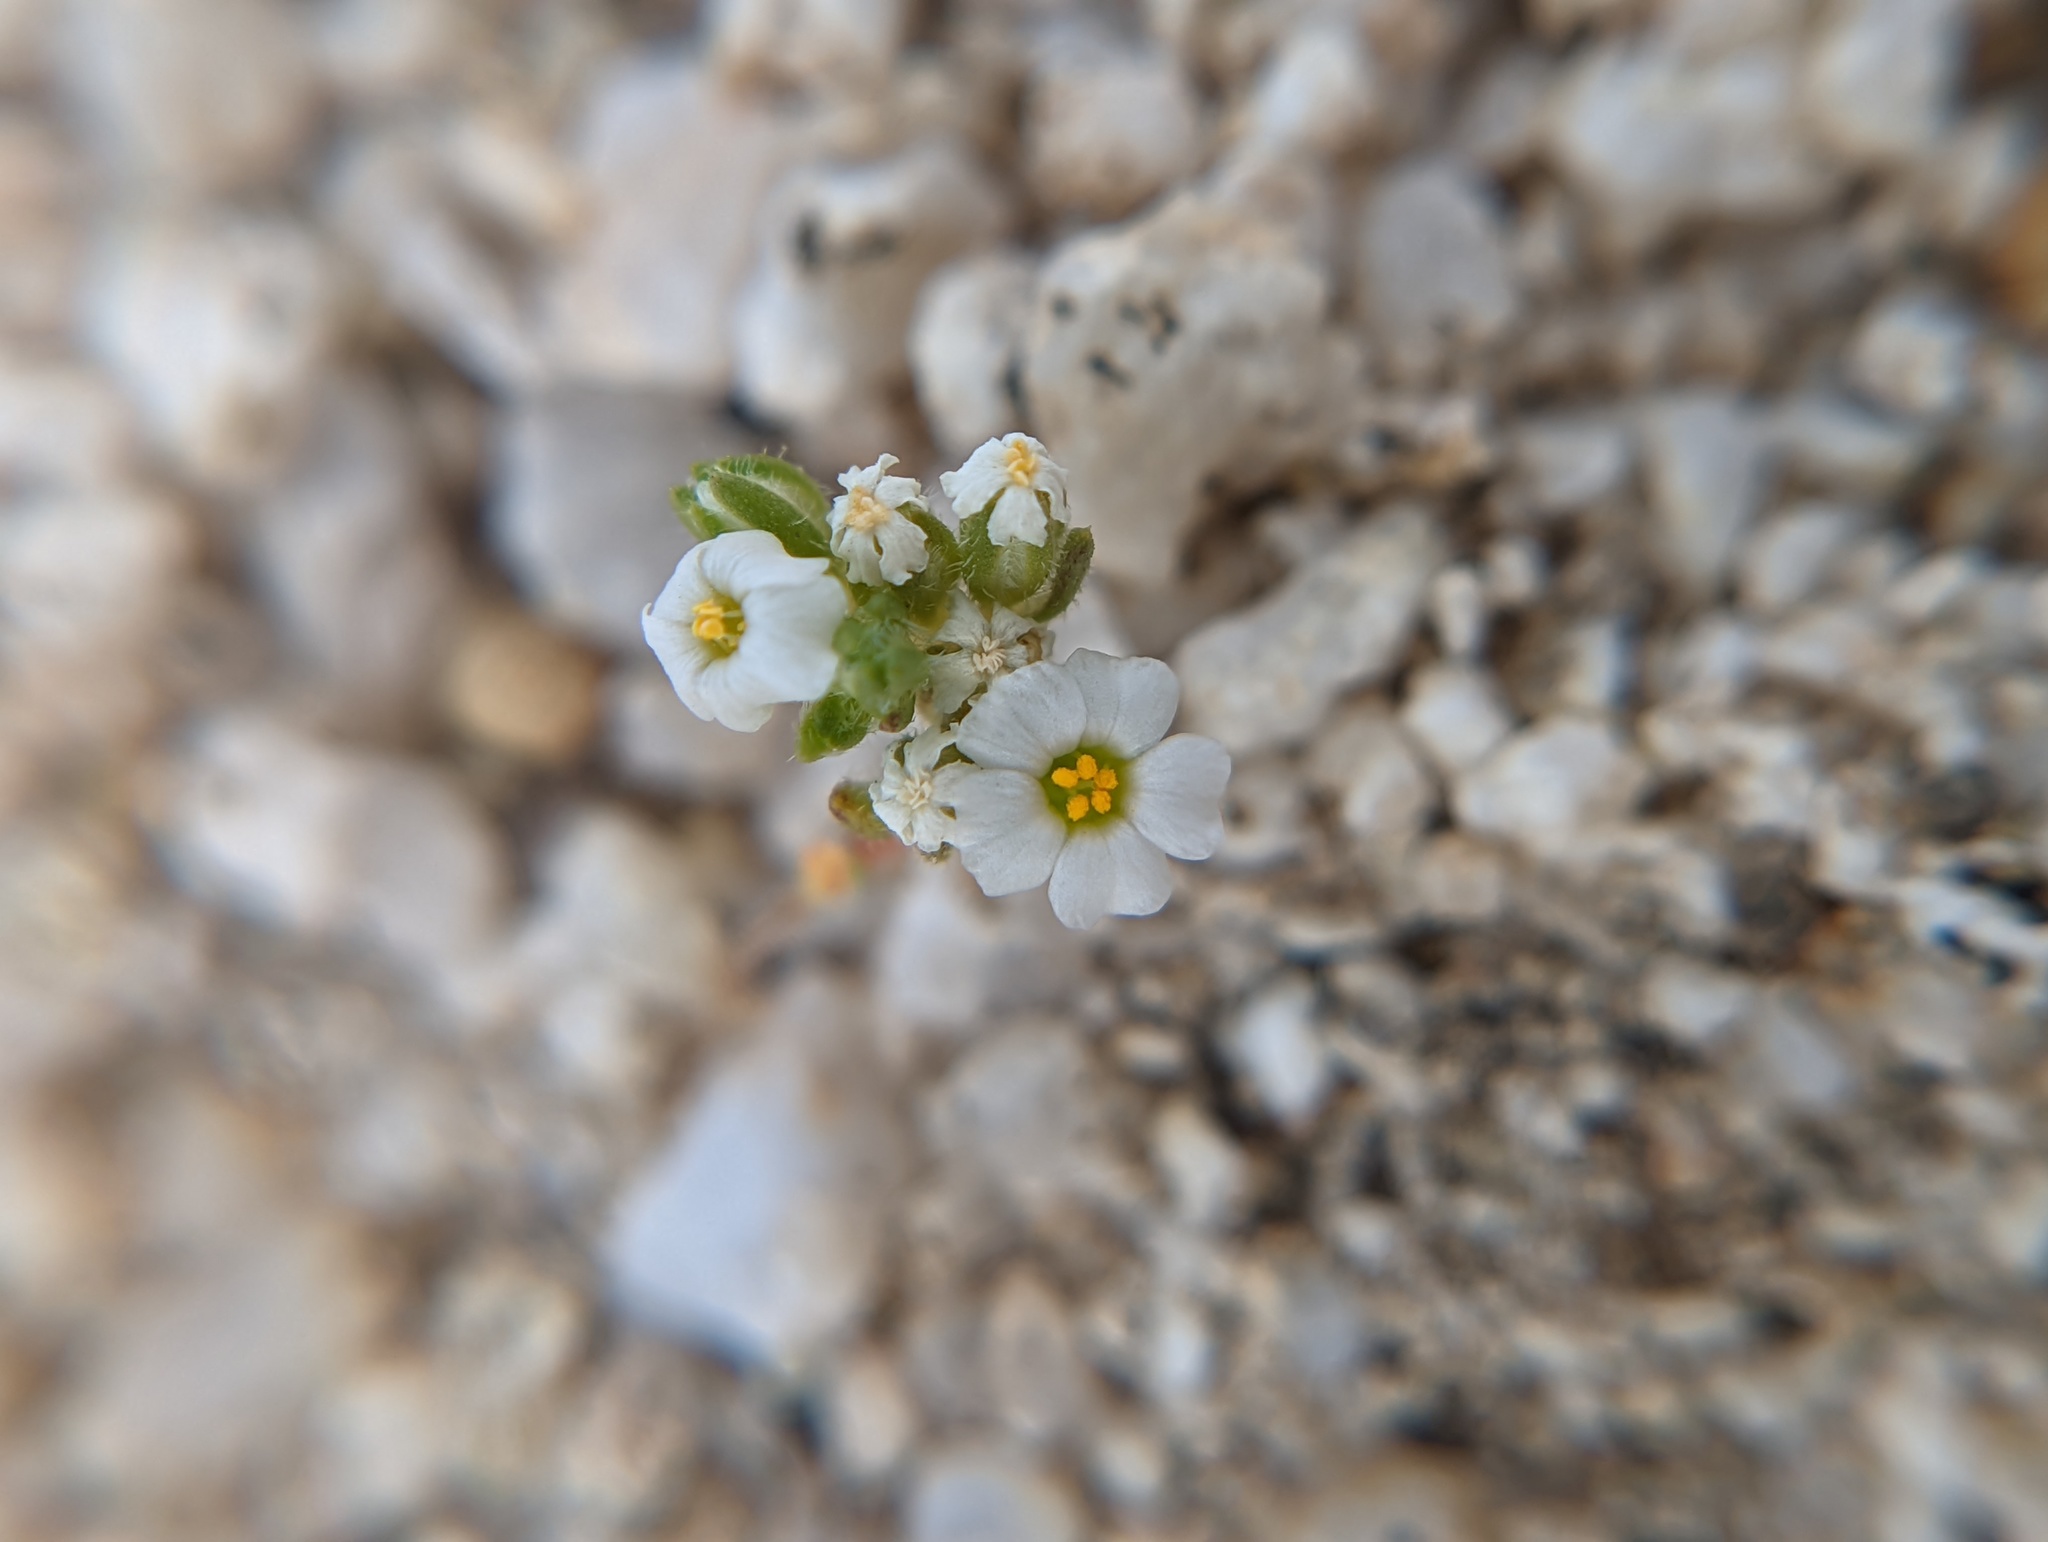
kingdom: Plantae
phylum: Tracheophyta
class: Magnoliopsida
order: Ericales
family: Polemoniaceae
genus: Maculigilia
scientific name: Maculigilia maculata
